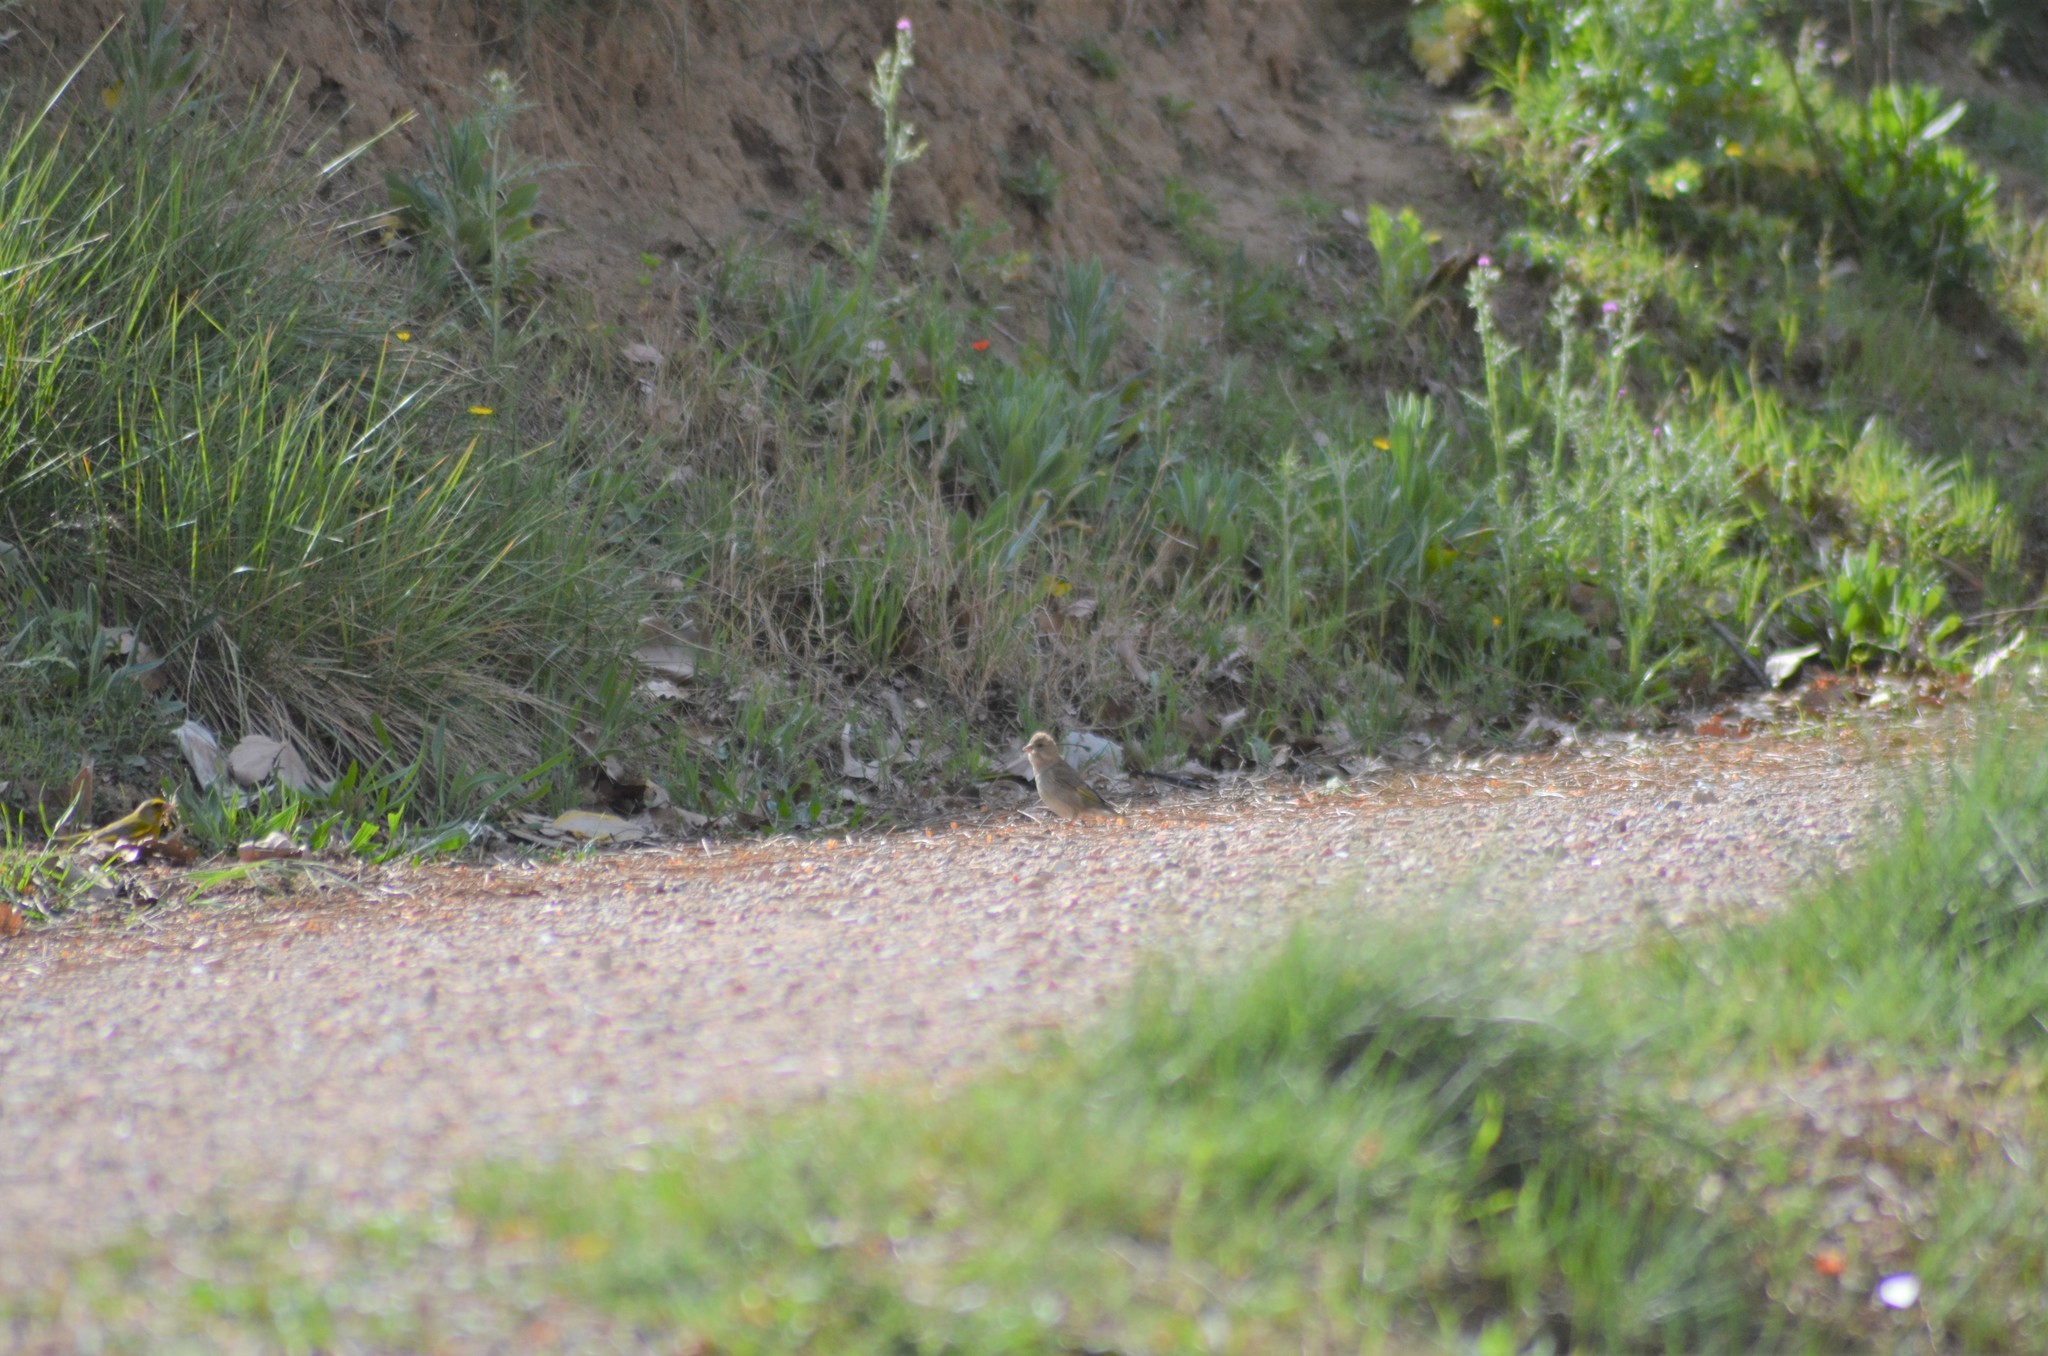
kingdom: Plantae
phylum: Tracheophyta
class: Liliopsida
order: Poales
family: Poaceae
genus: Chloris
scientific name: Chloris chloris
